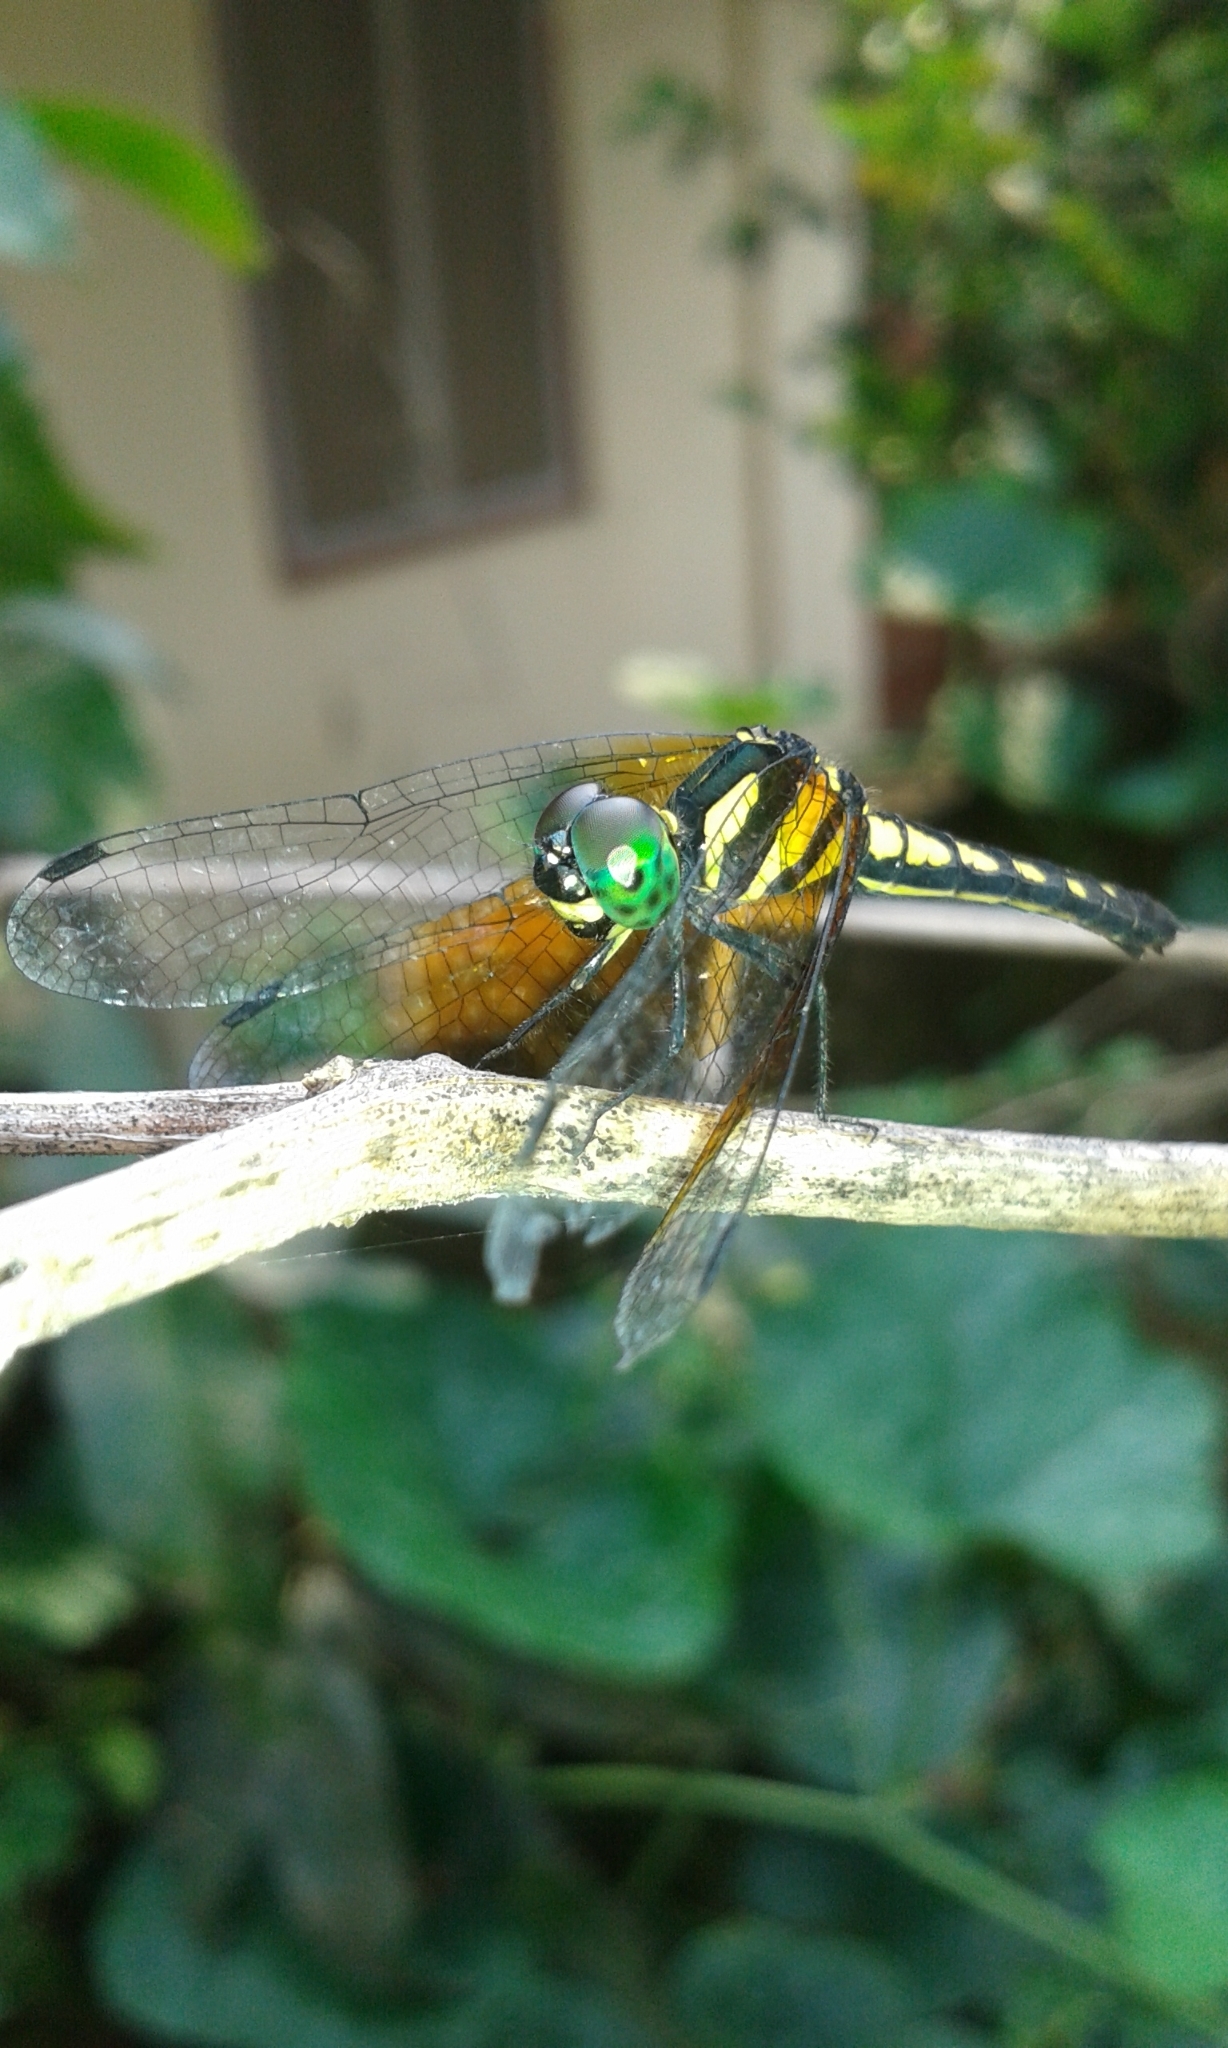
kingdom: Animalia
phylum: Arthropoda
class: Insecta
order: Odonata
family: Libellulidae
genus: Tetrathemis
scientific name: Tetrathemis platyptera
